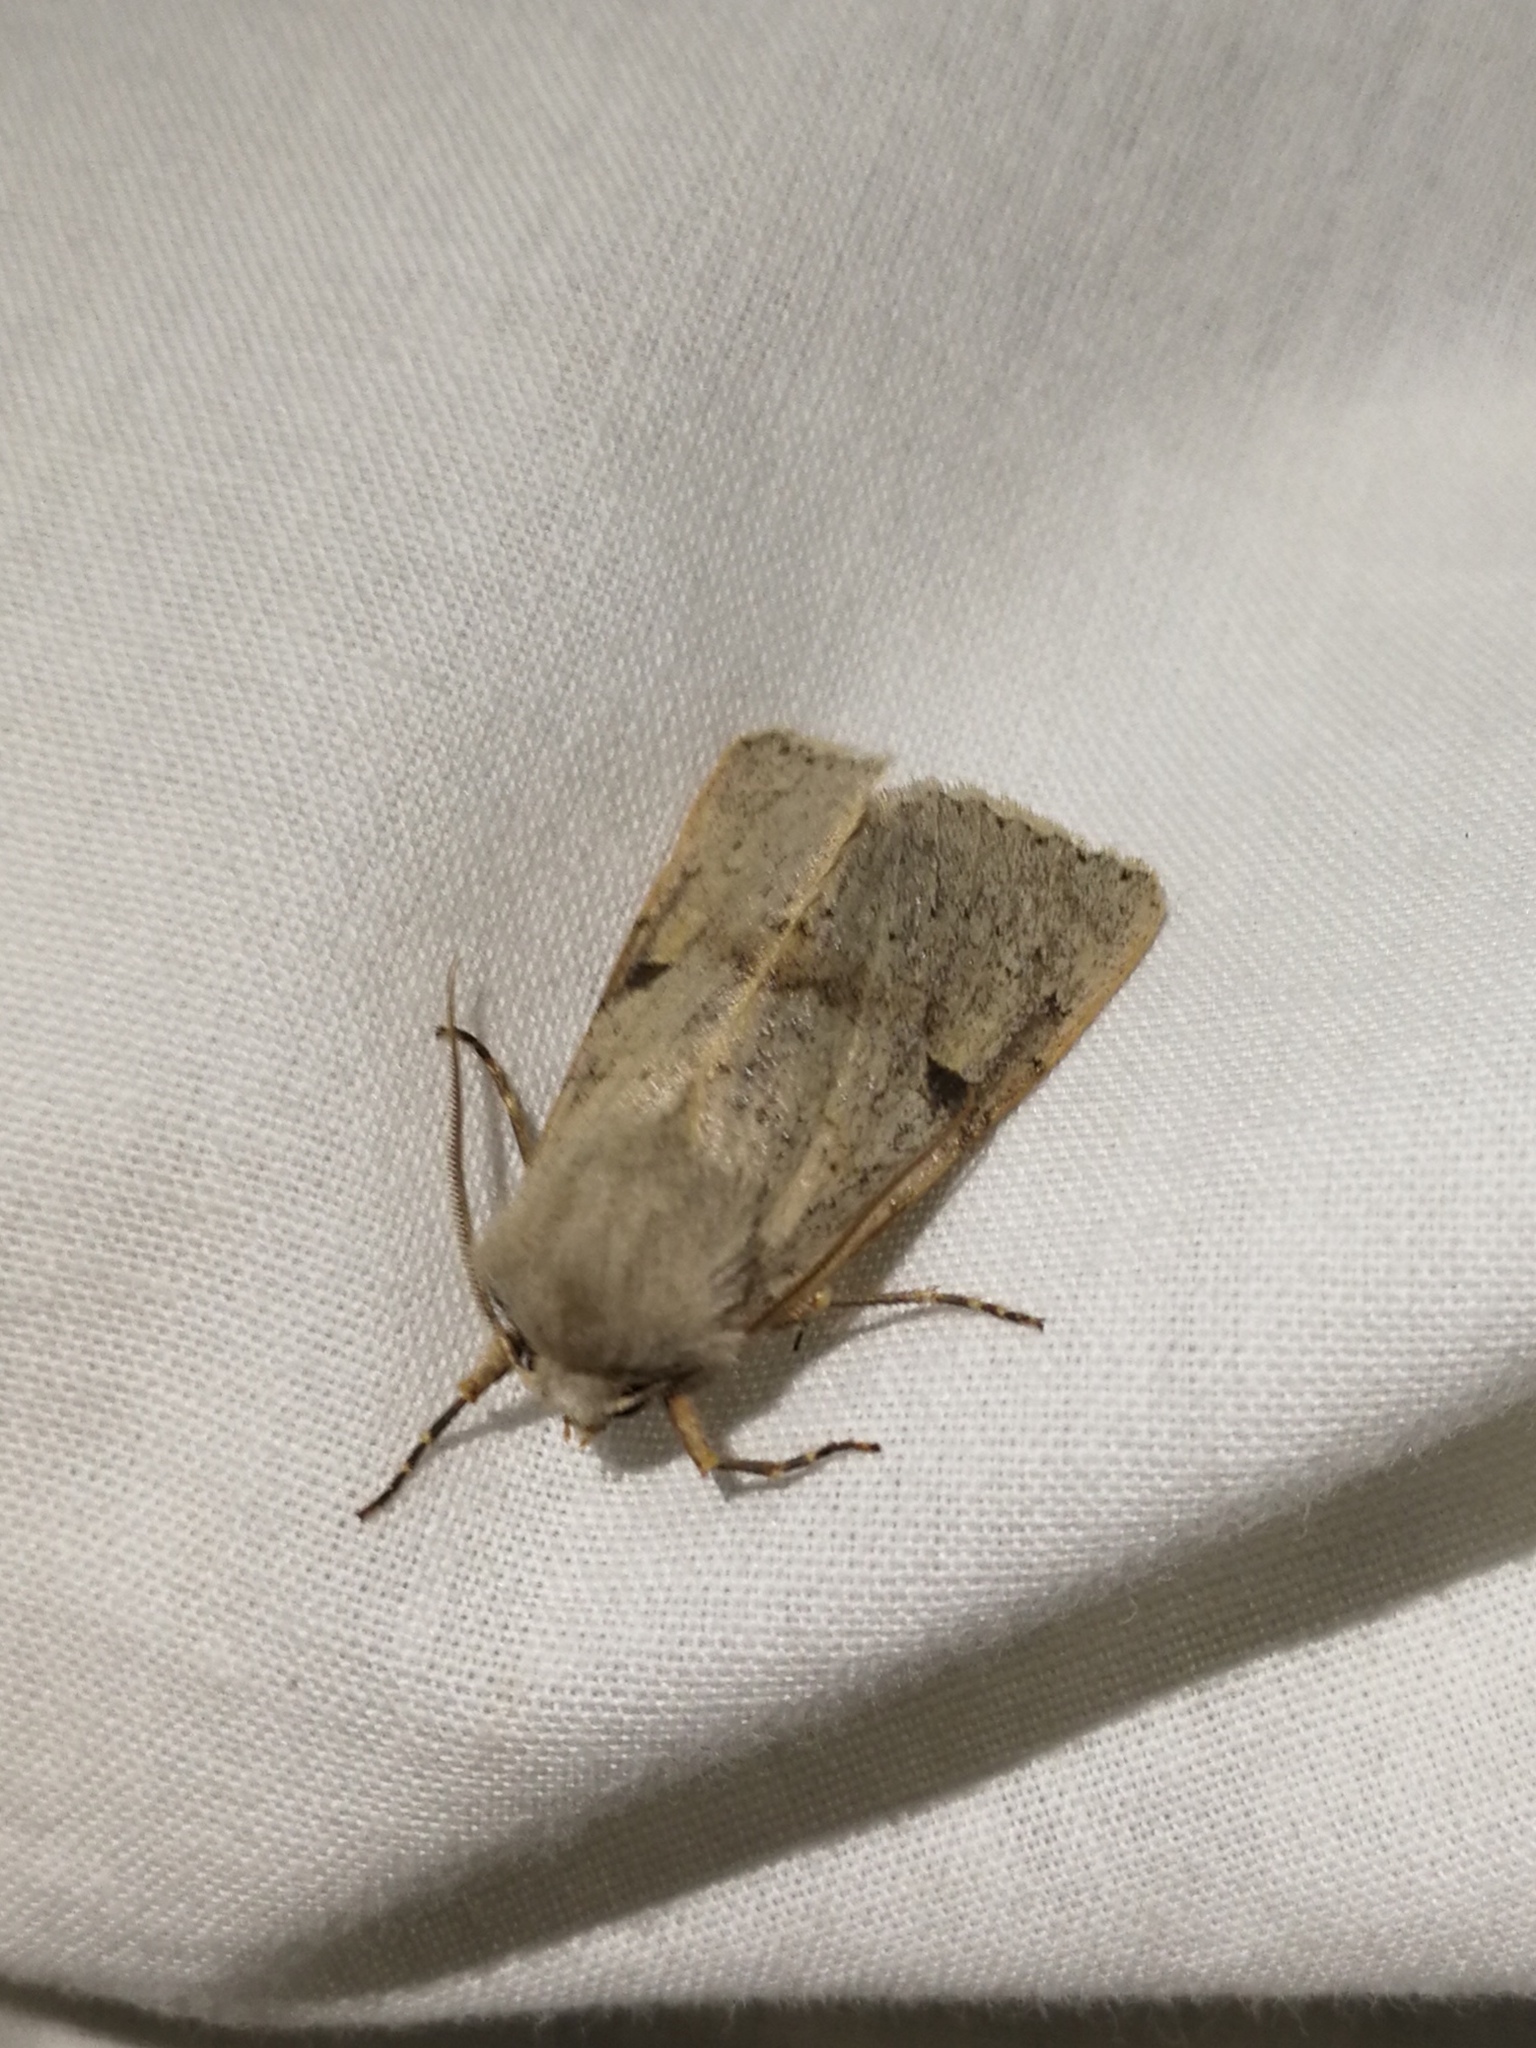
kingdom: Animalia
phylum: Arthropoda
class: Insecta
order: Lepidoptera
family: Noctuidae
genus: Ammopolia
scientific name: Ammopolia witzenmanni
